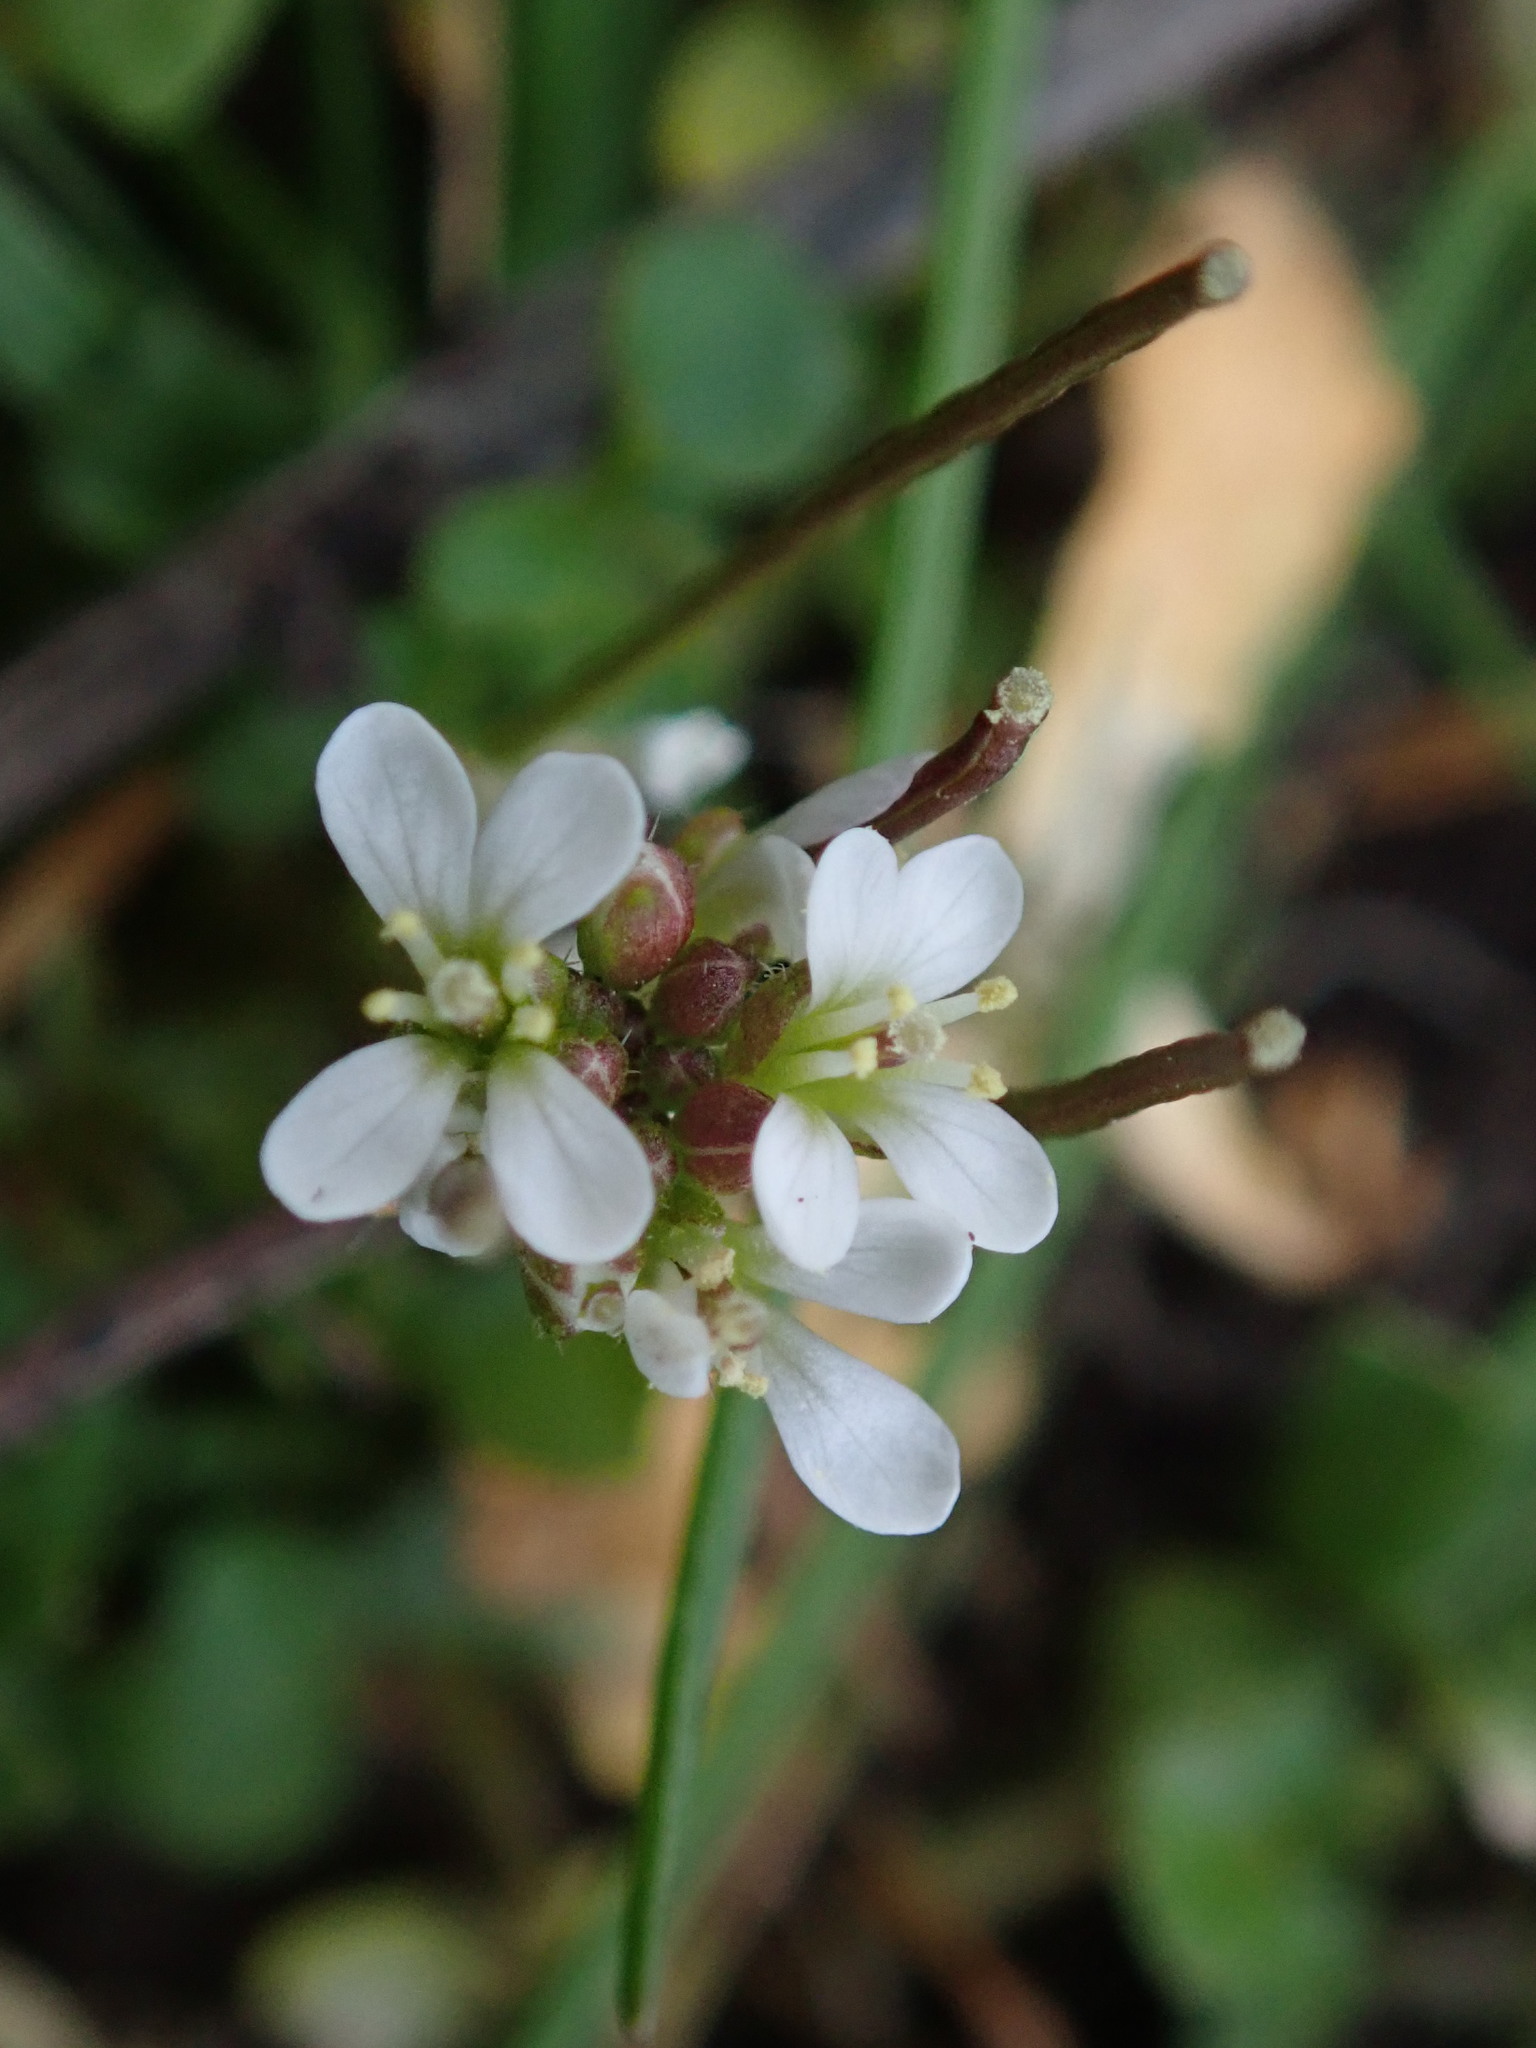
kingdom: Plantae
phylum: Tracheophyta
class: Magnoliopsida
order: Brassicales
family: Brassicaceae
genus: Cardamine
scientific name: Cardamine hirsuta
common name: Hairy bittercress
